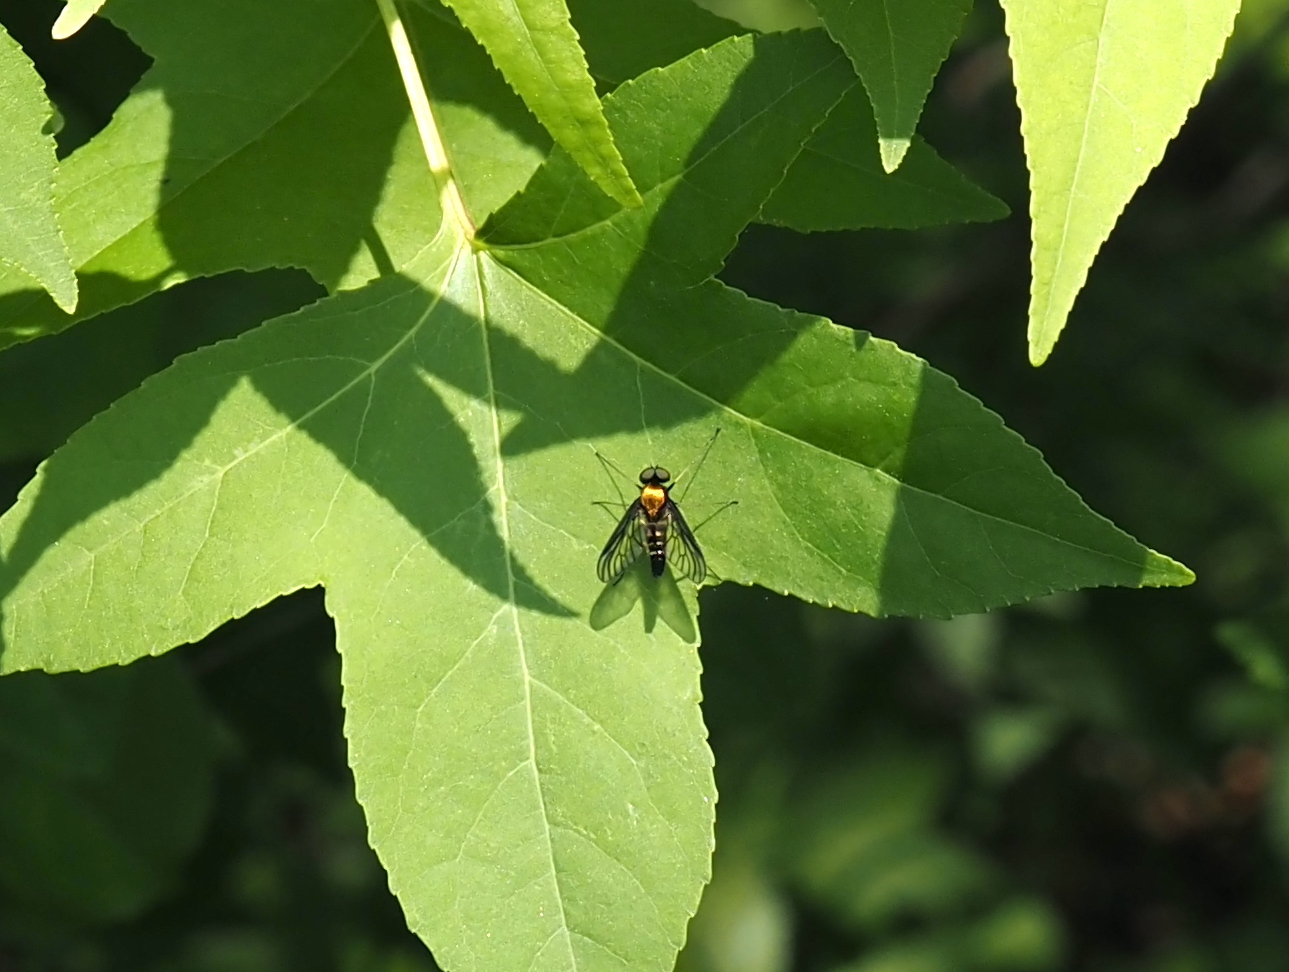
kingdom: Animalia
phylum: Arthropoda
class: Insecta
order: Diptera
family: Rhagionidae
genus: Chrysopilus
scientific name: Chrysopilus thoracicus
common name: Golden-backed snipe fly
